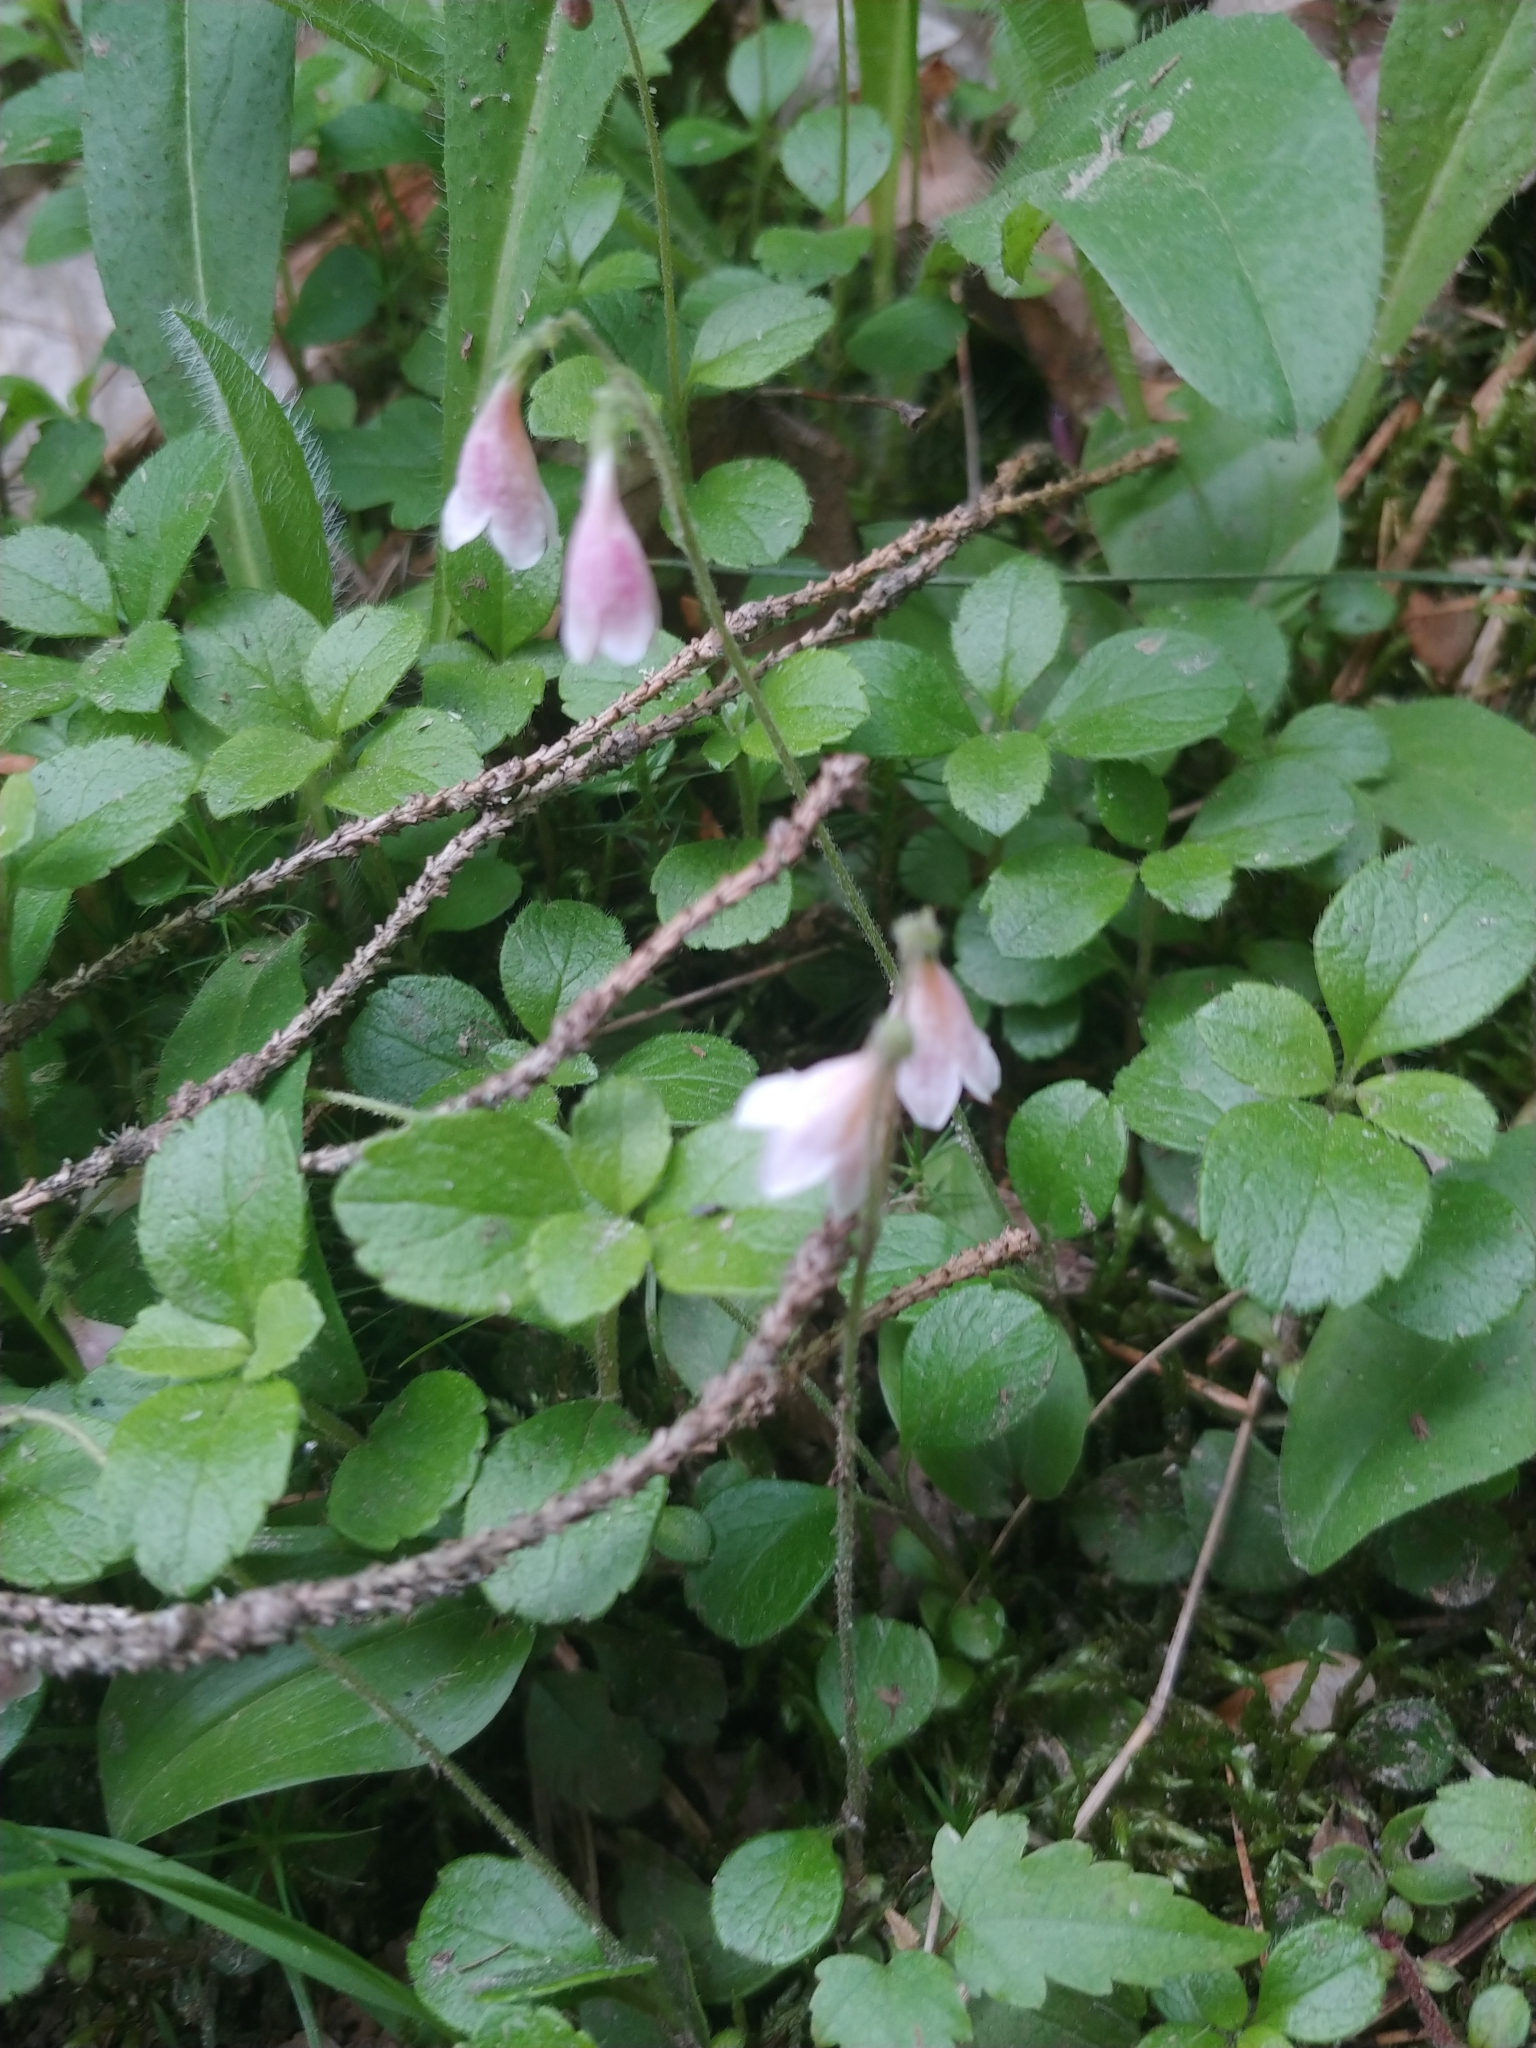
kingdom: Plantae
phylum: Tracheophyta
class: Magnoliopsida
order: Dipsacales
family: Caprifoliaceae
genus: Linnaea
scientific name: Linnaea borealis
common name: Twinflower
